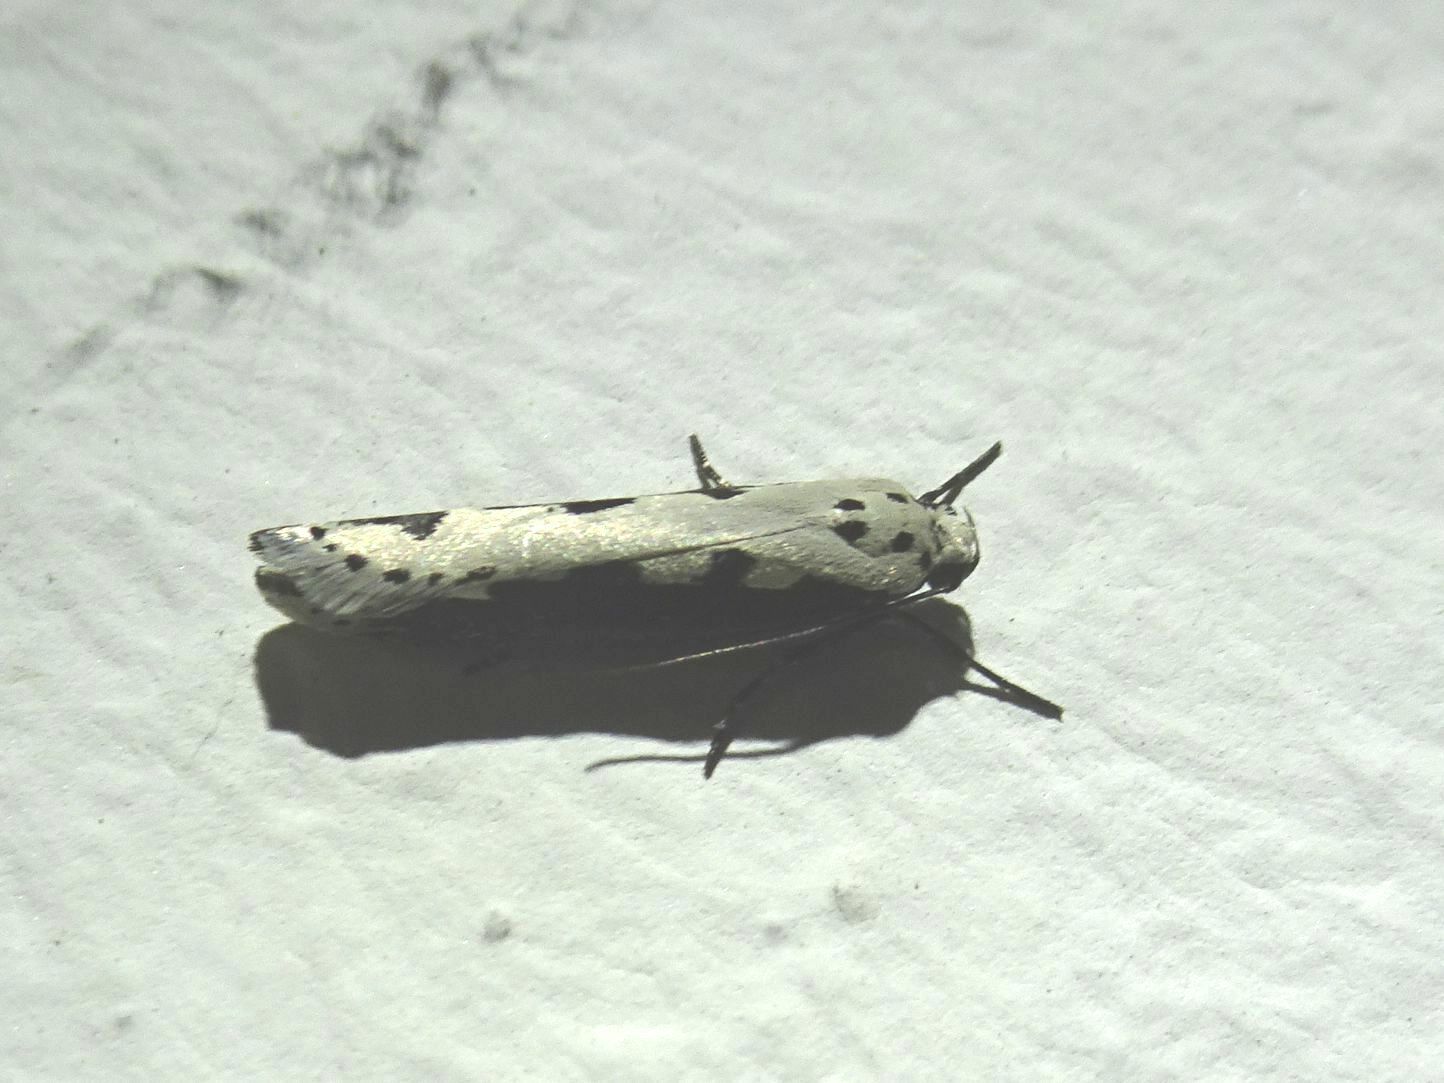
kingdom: Animalia
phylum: Arthropoda
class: Insecta
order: Lepidoptera
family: Ethmiidae
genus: Ethmia
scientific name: Ethmia bipunctella
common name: Bordered ermel
